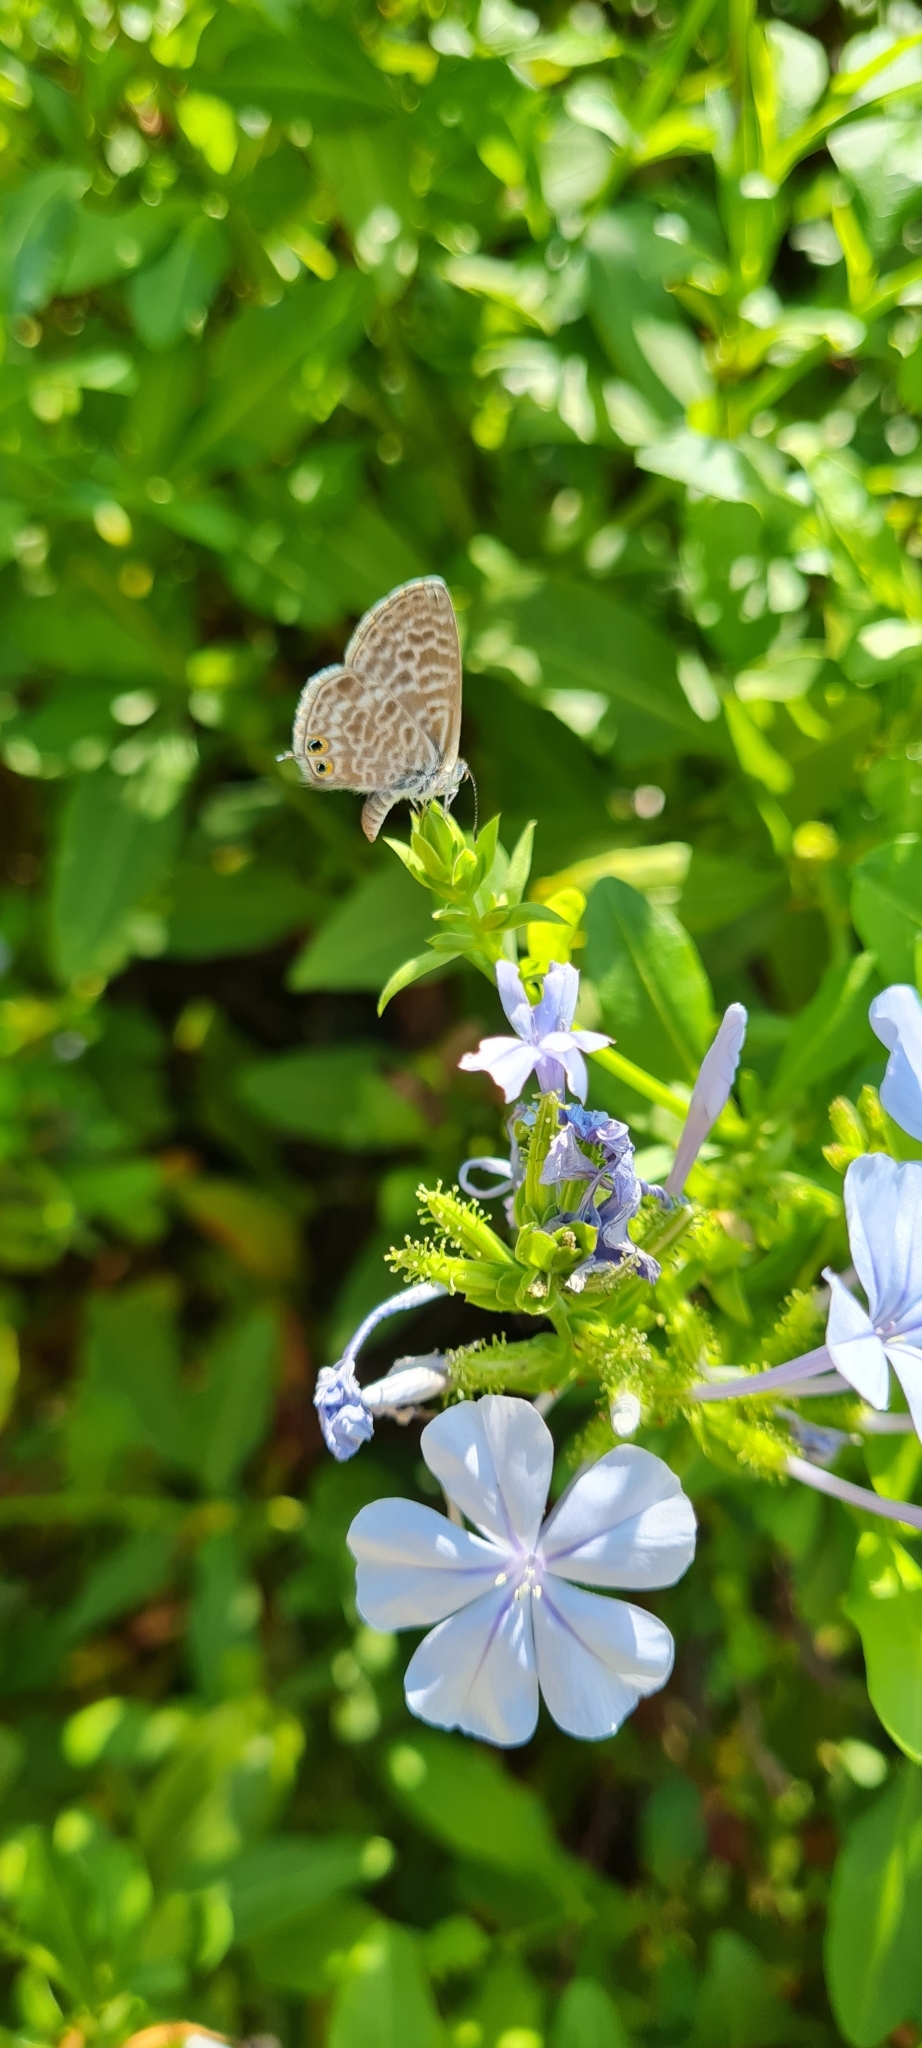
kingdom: Animalia
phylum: Arthropoda
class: Insecta
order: Lepidoptera
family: Lycaenidae
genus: Leptotes
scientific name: Leptotes pirithous
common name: Lang's short-tailed blue
